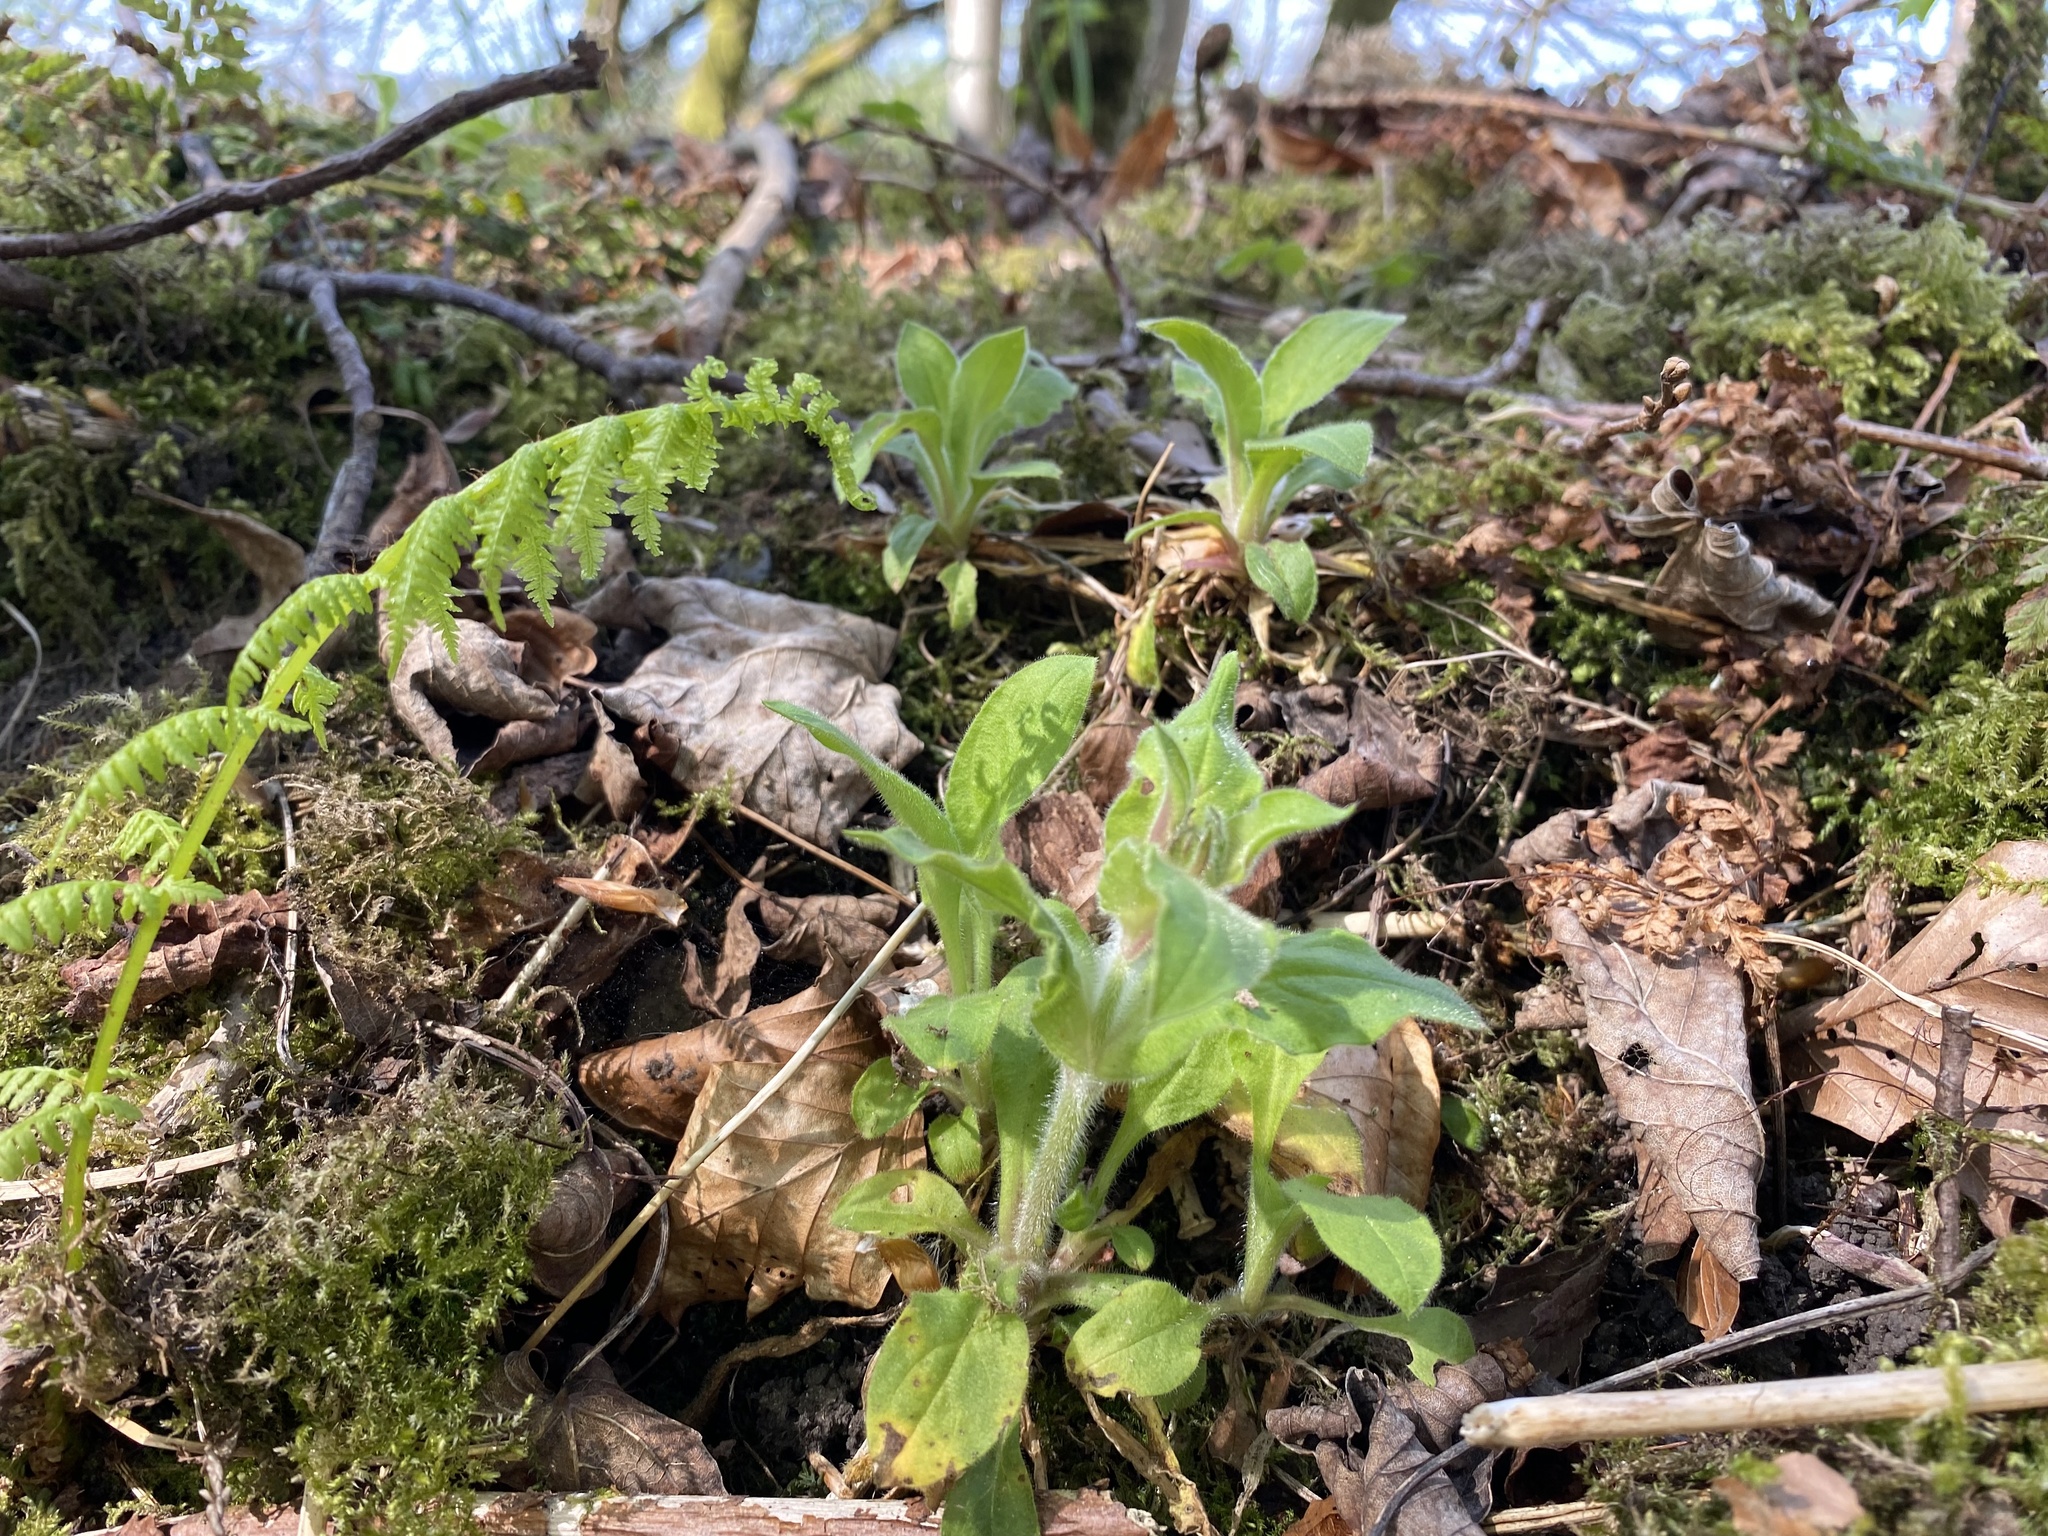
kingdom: Plantae
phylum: Tracheophyta
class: Magnoliopsida
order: Caryophyllales
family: Caryophyllaceae
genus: Silene
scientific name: Silene dioica
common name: Red campion
